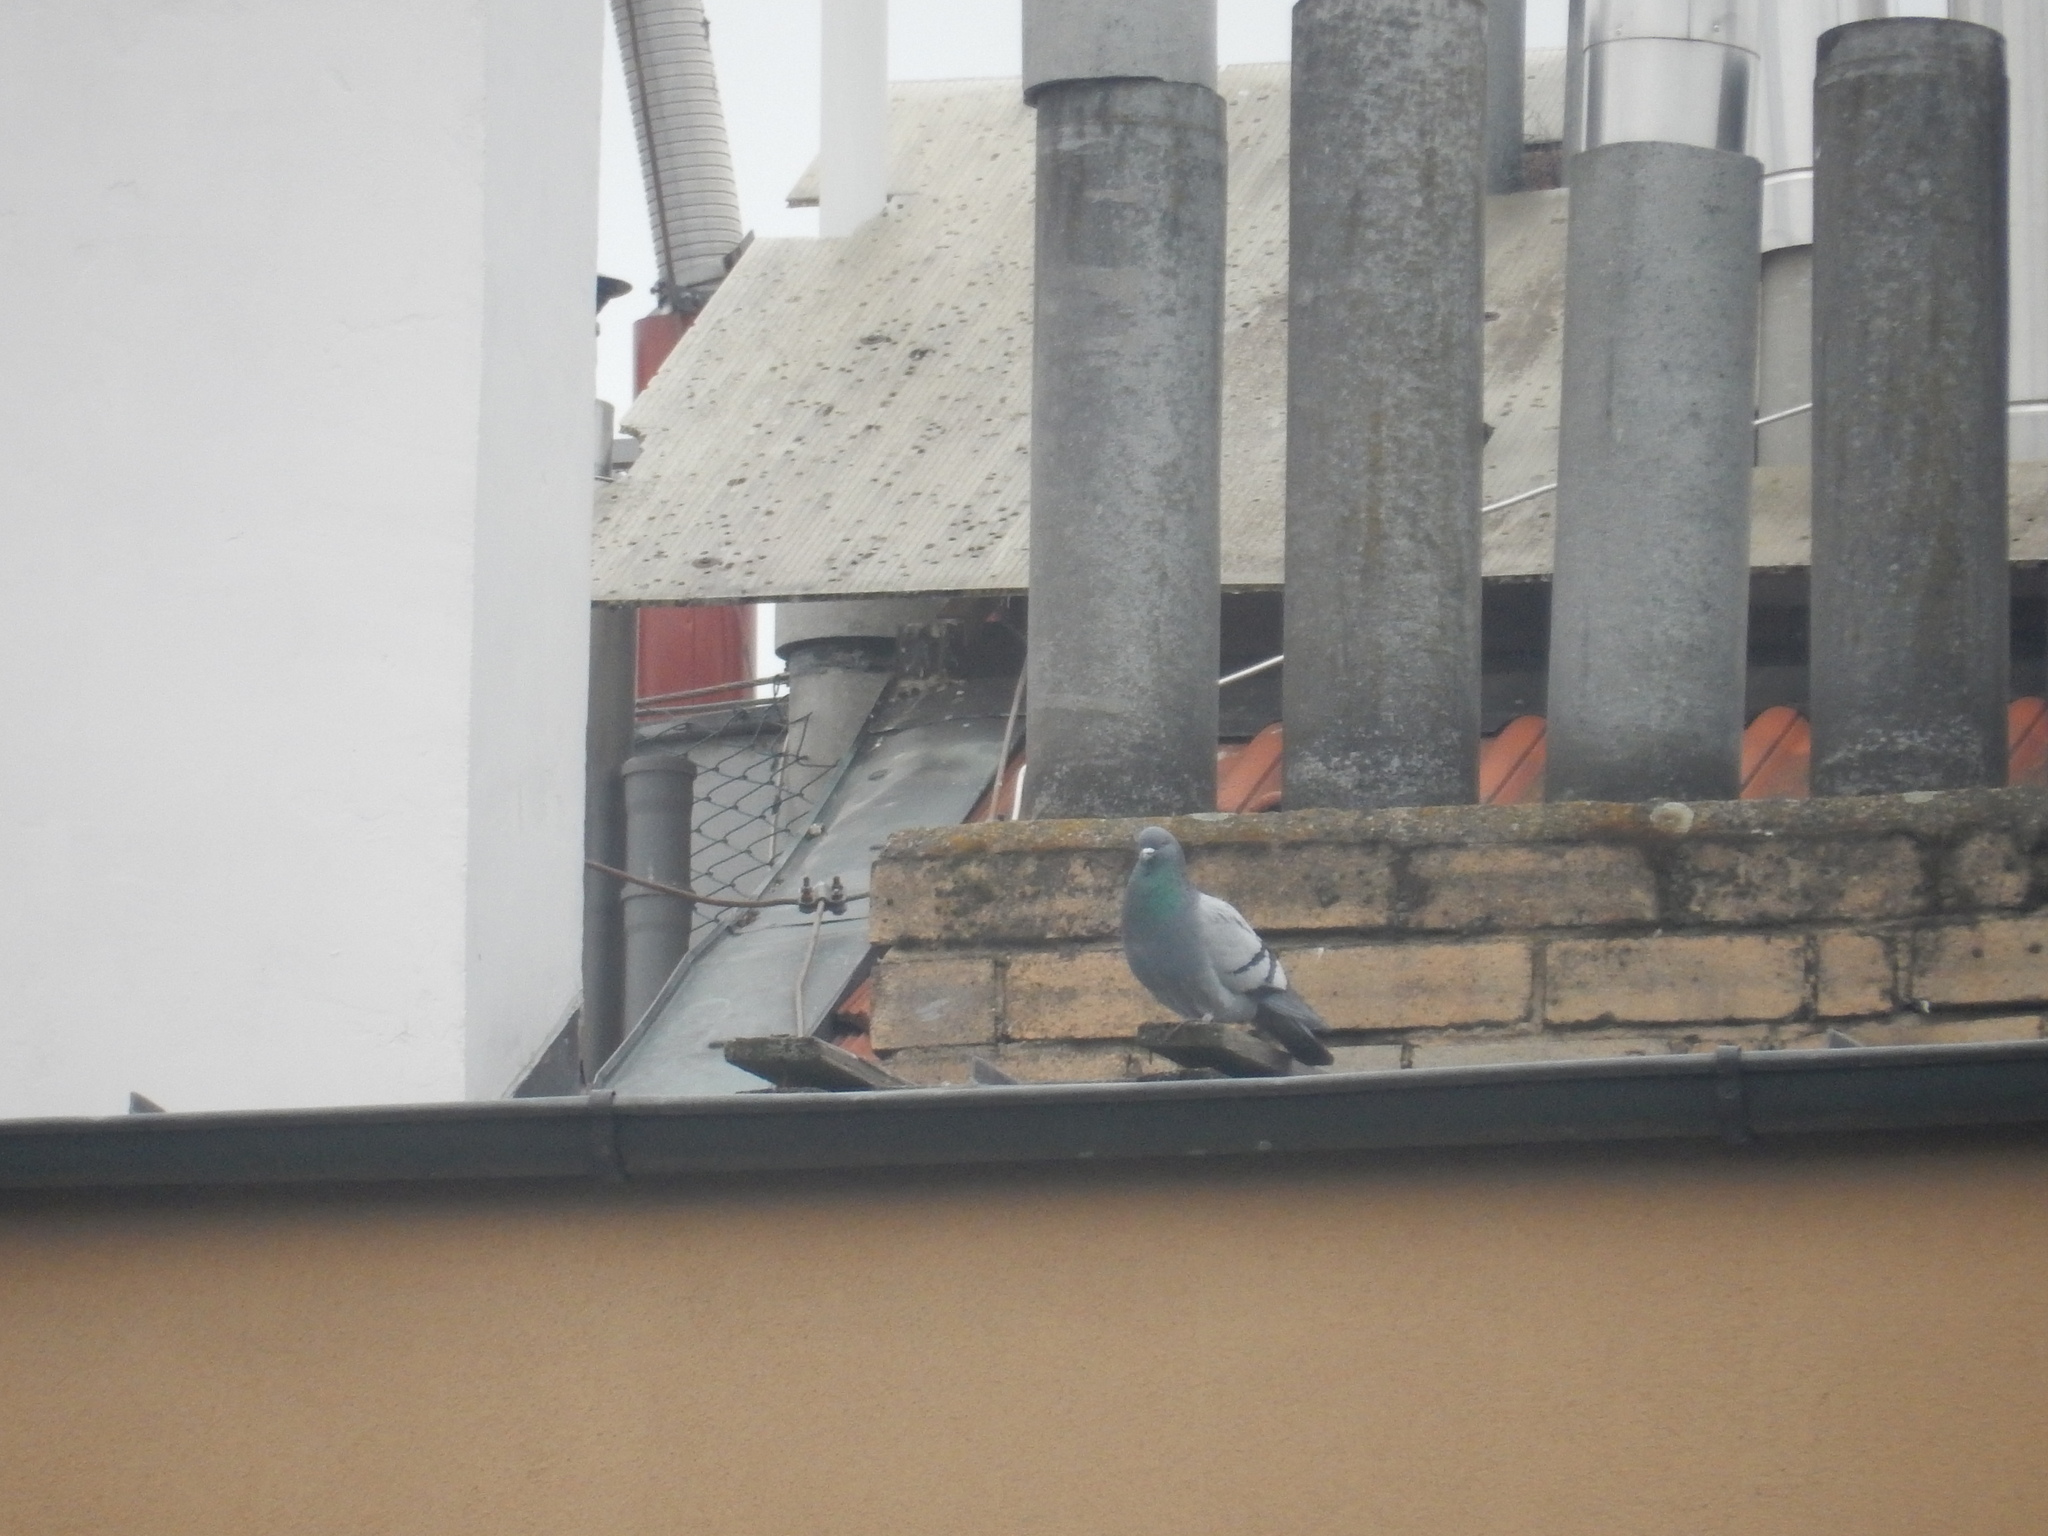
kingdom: Animalia
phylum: Chordata
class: Aves
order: Columbiformes
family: Columbidae
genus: Columba
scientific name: Columba livia
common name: Rock pigeon
